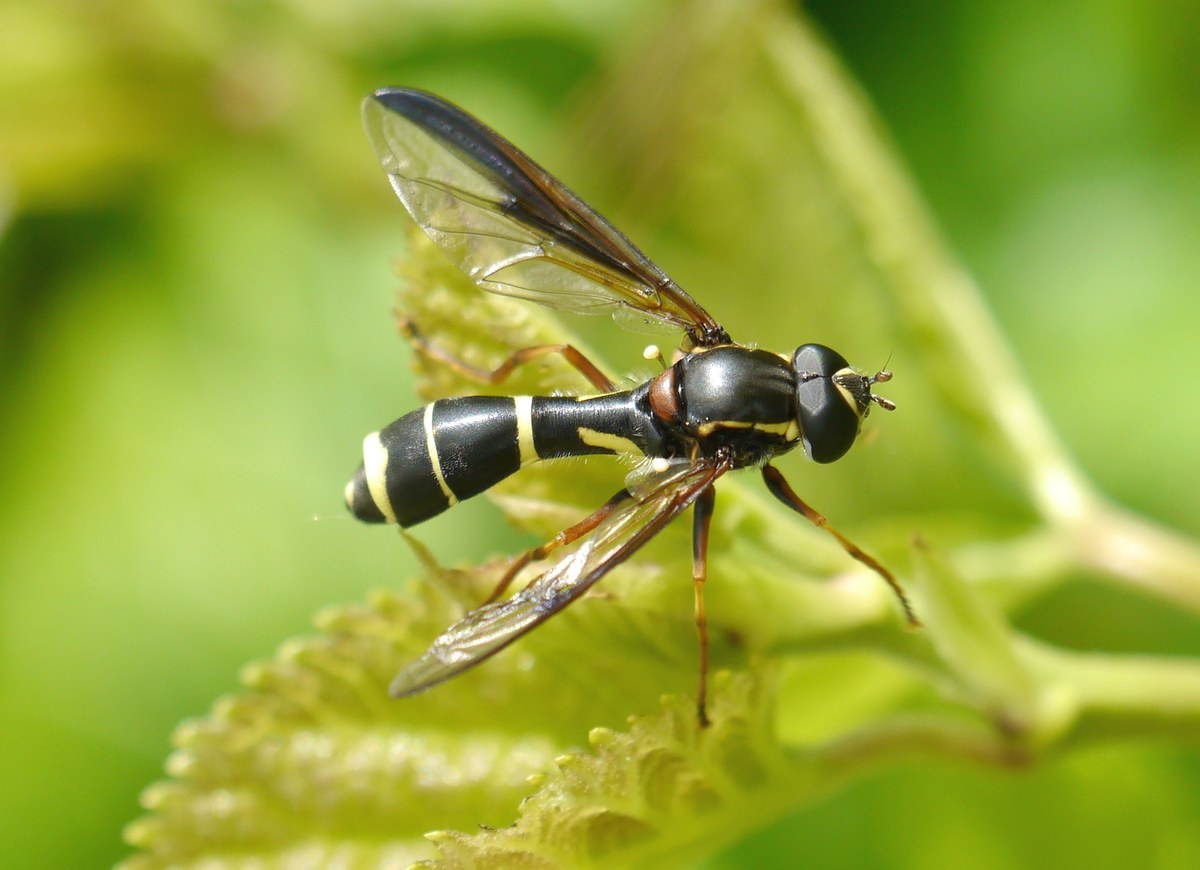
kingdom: Animalia
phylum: Arthropoda
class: Insecta
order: Diptera
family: Syrphidae
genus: Doros
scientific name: Doros profuges
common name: Phantom hoverfly
